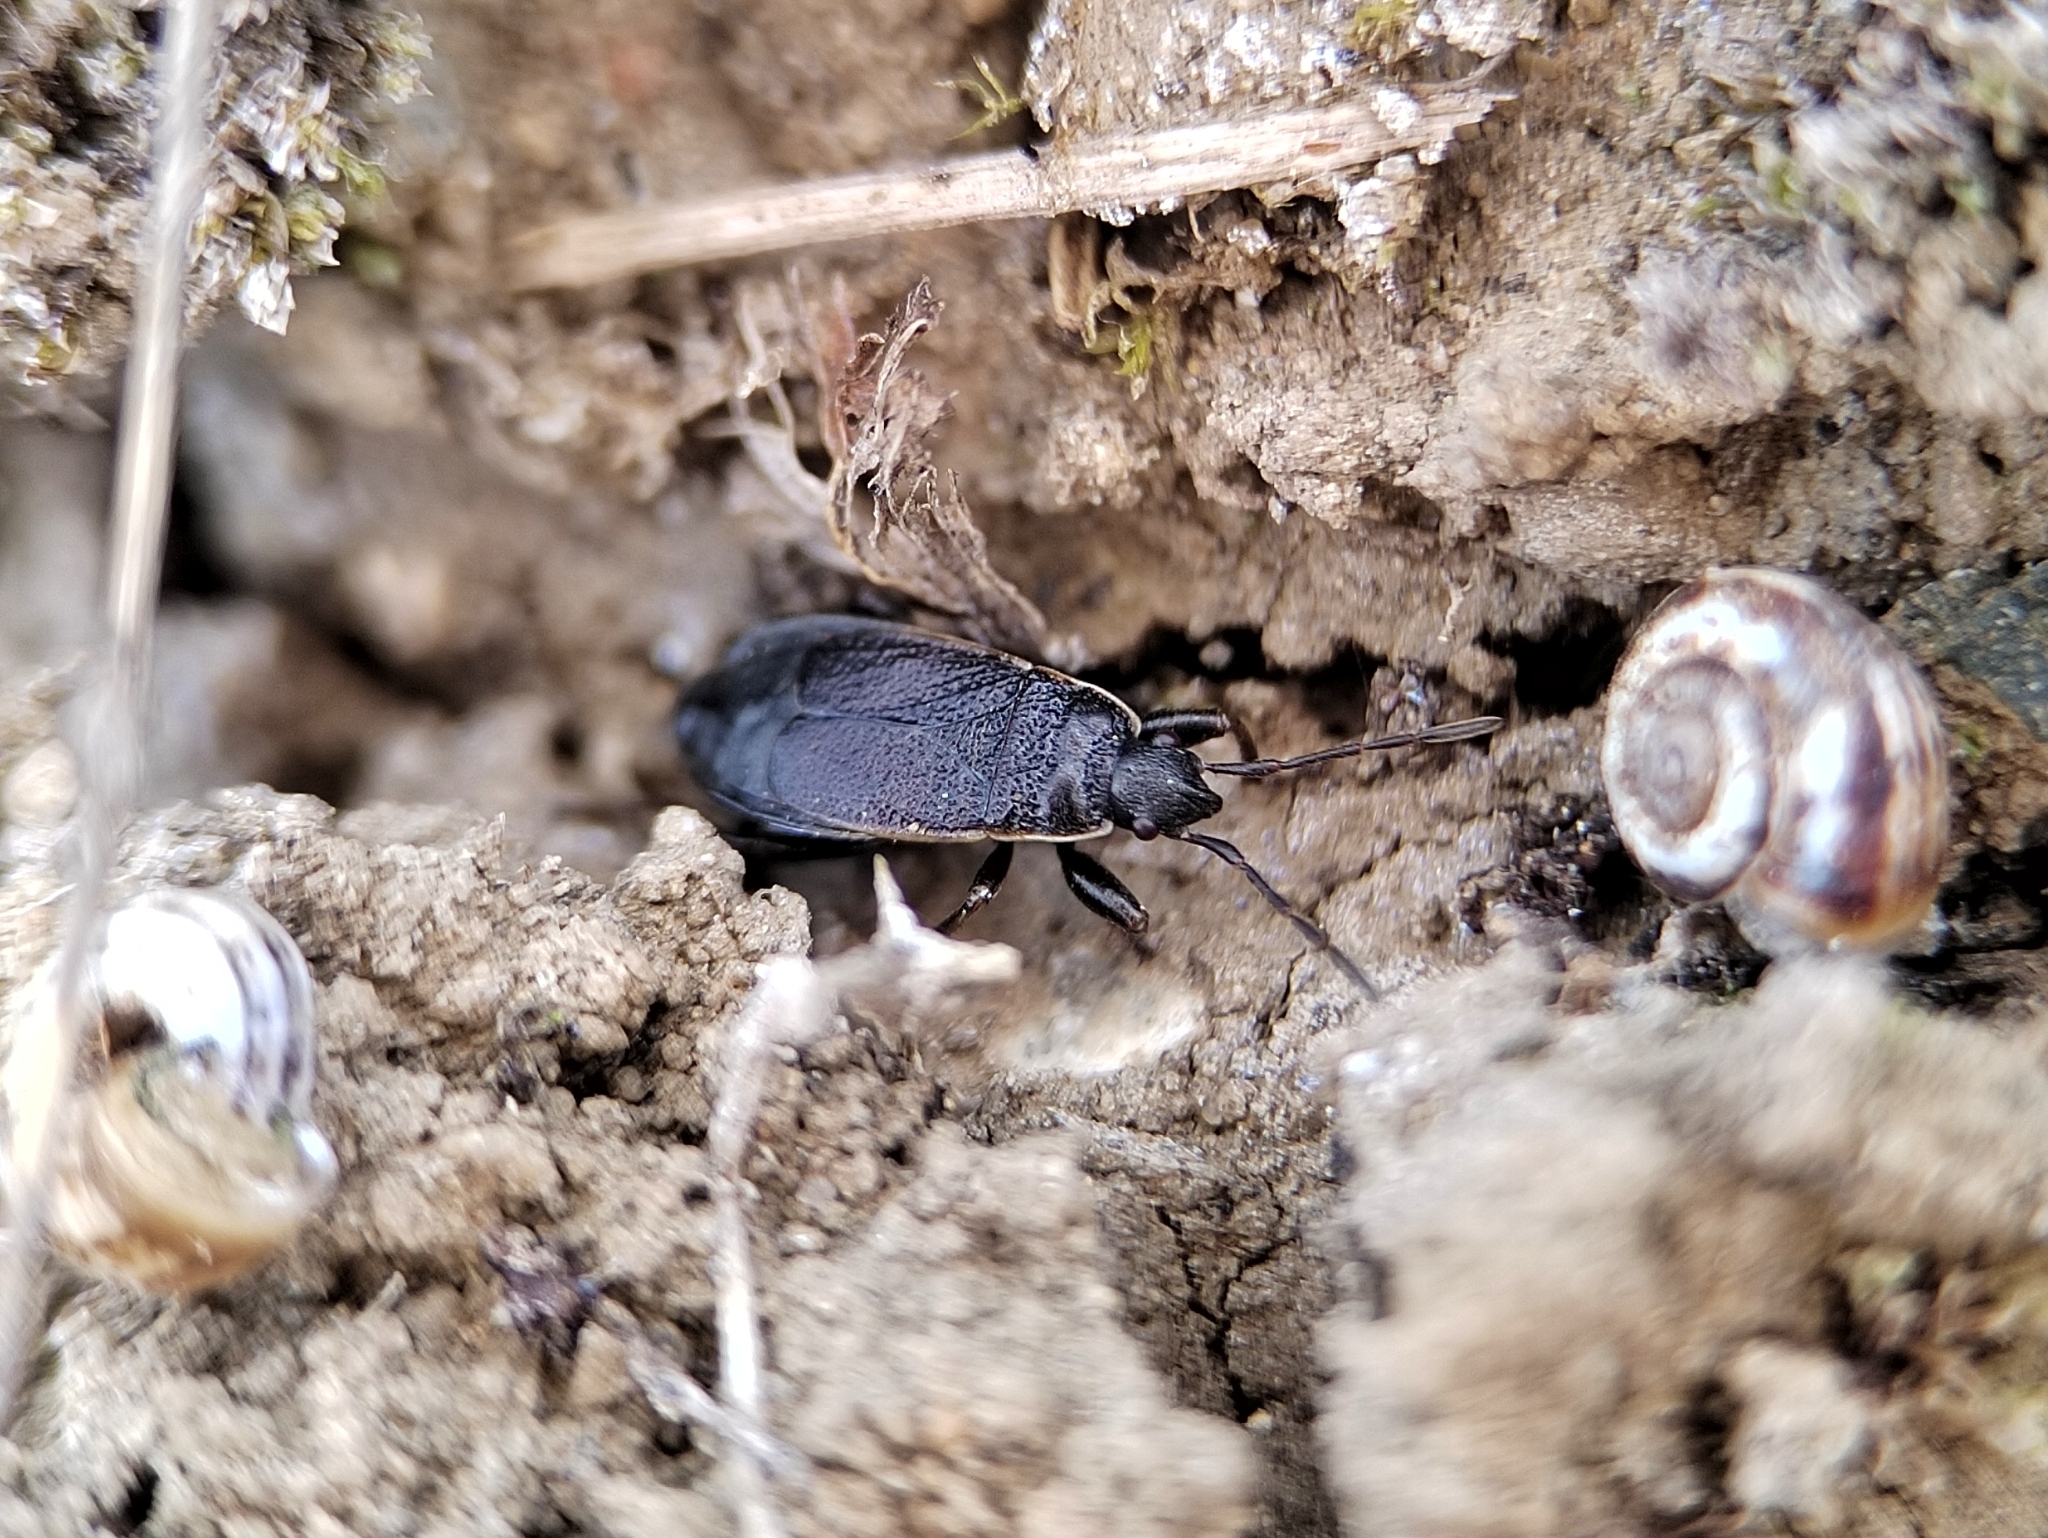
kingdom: Animalia
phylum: Arthropoda
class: Insecta
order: Hemiptera
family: Pyrrhocoridae
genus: Pyrrhocoris
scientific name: Pyrrhocoris marginatus
